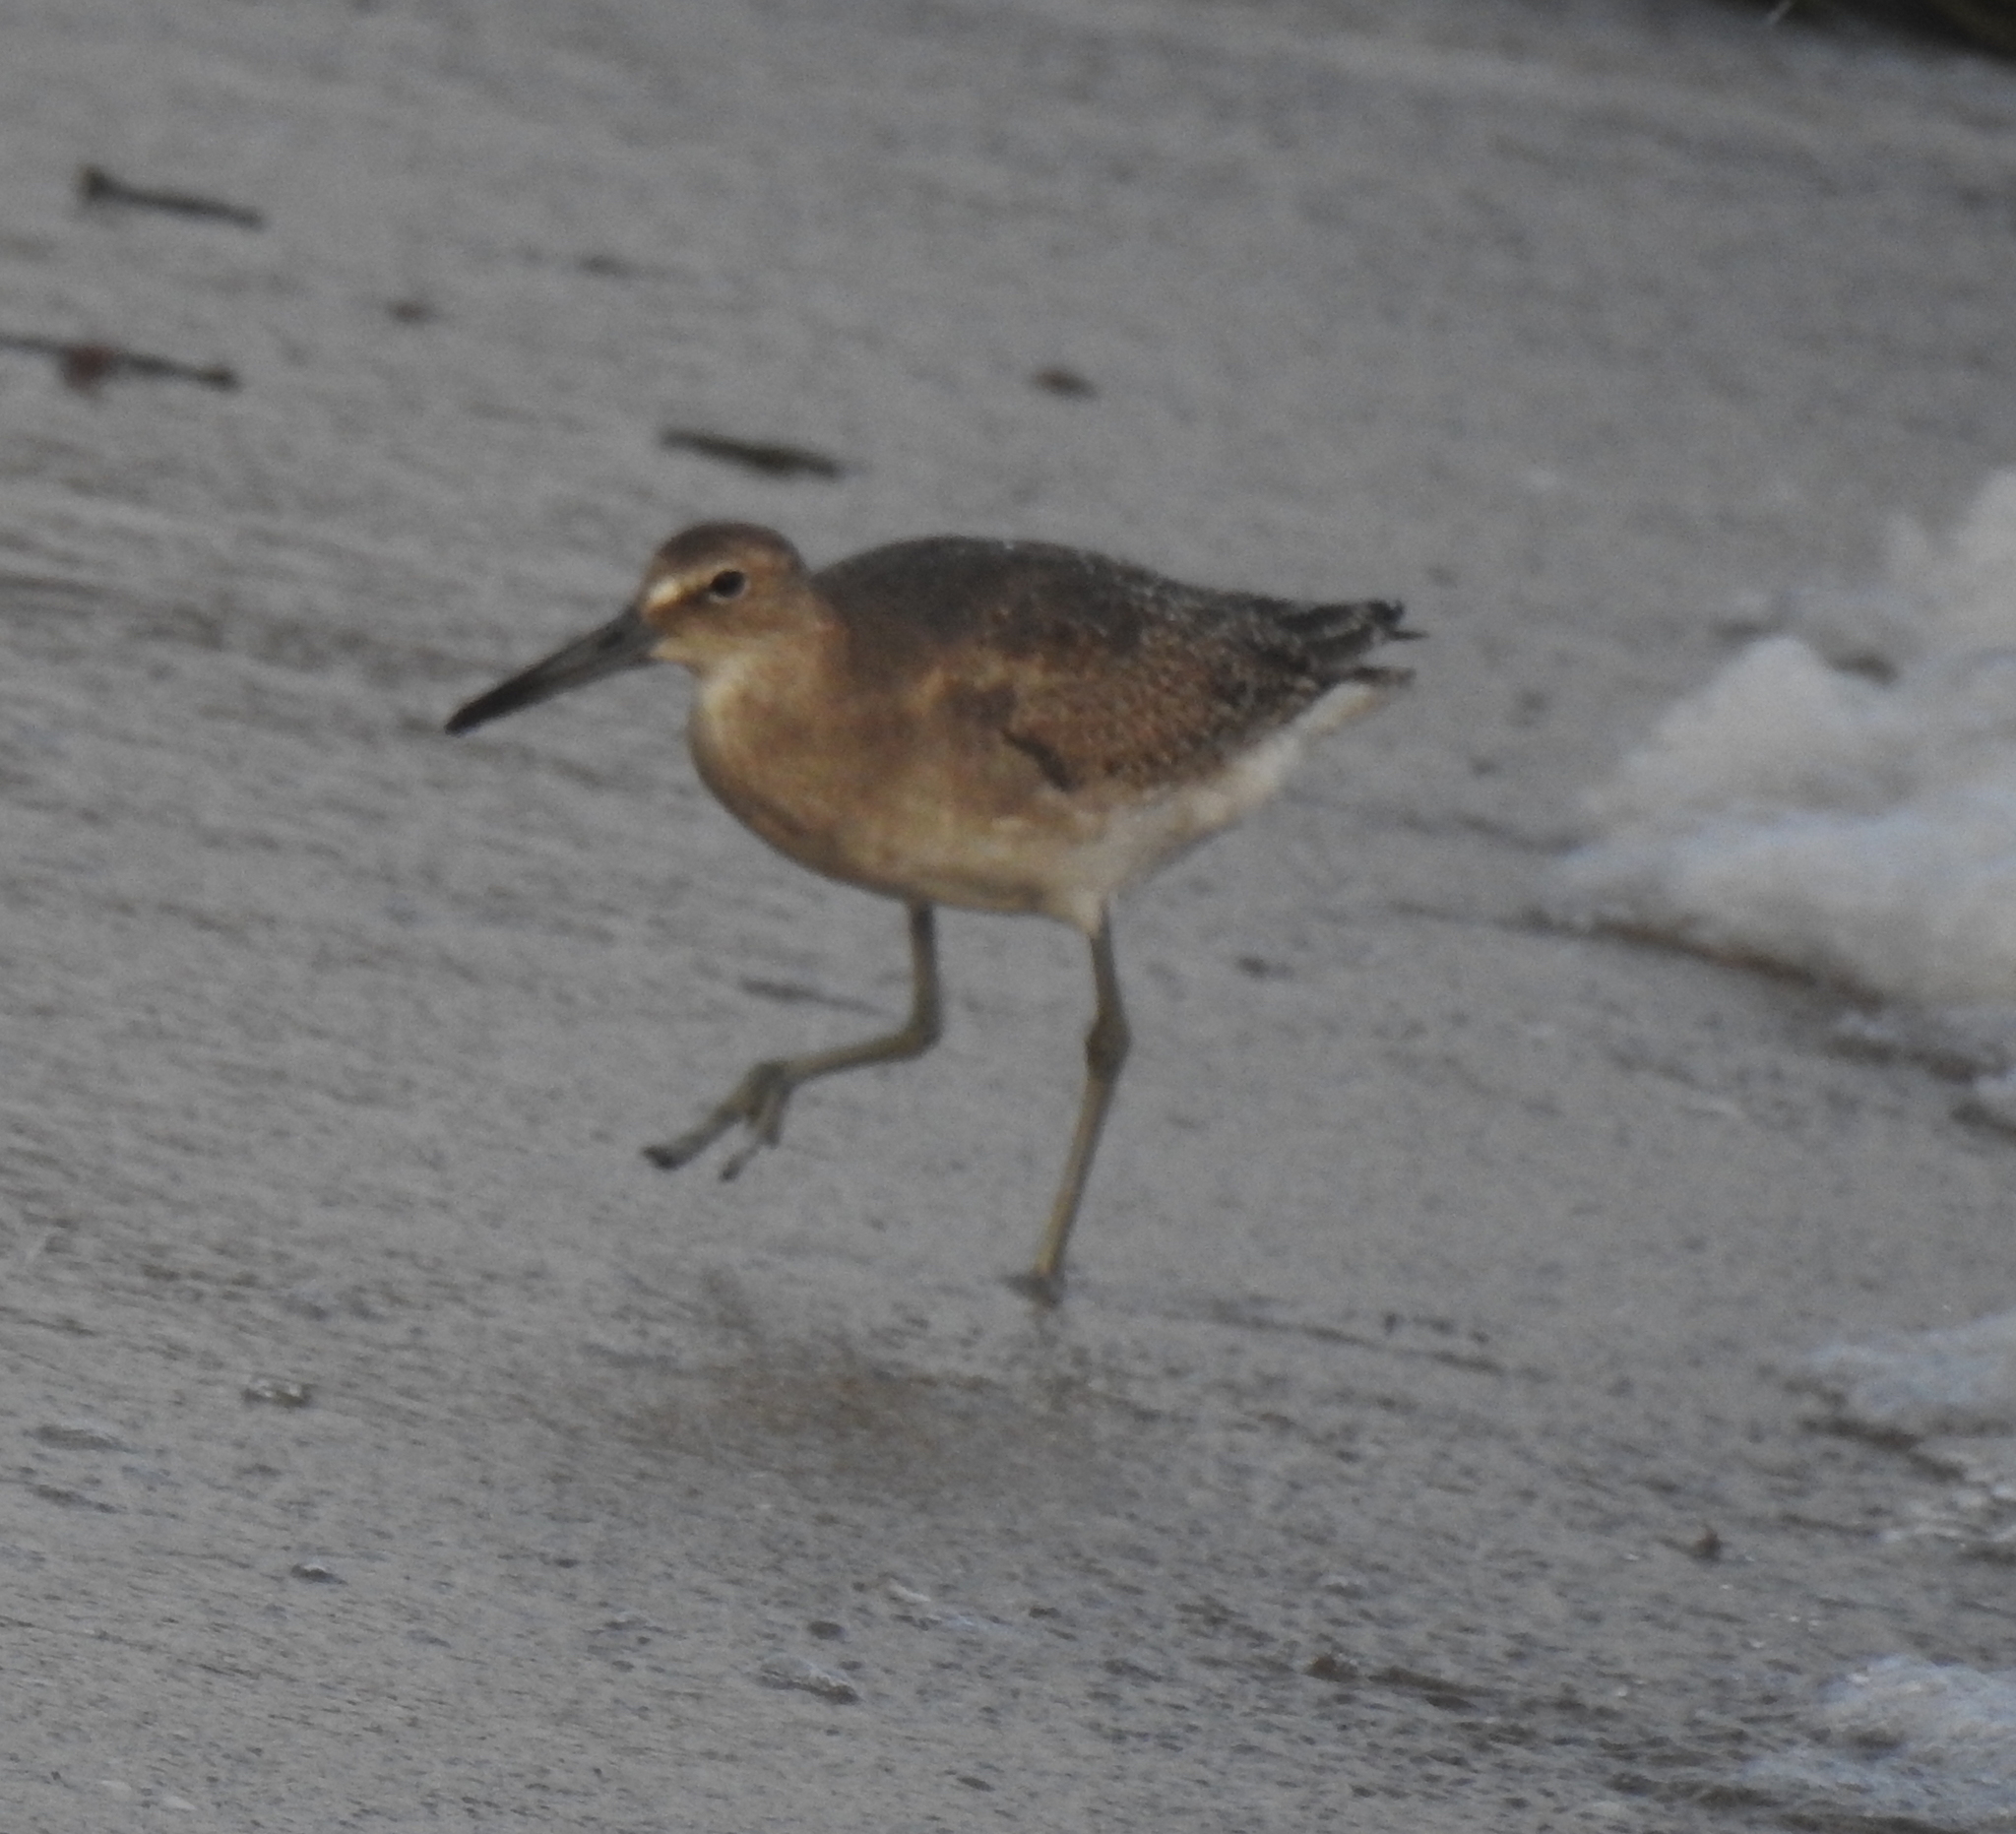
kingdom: Animalia
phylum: Chordata
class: Aves
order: Charadriiformes
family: Scolopacidae
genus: Tringa
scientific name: Tringa semipalmata
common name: Willet
